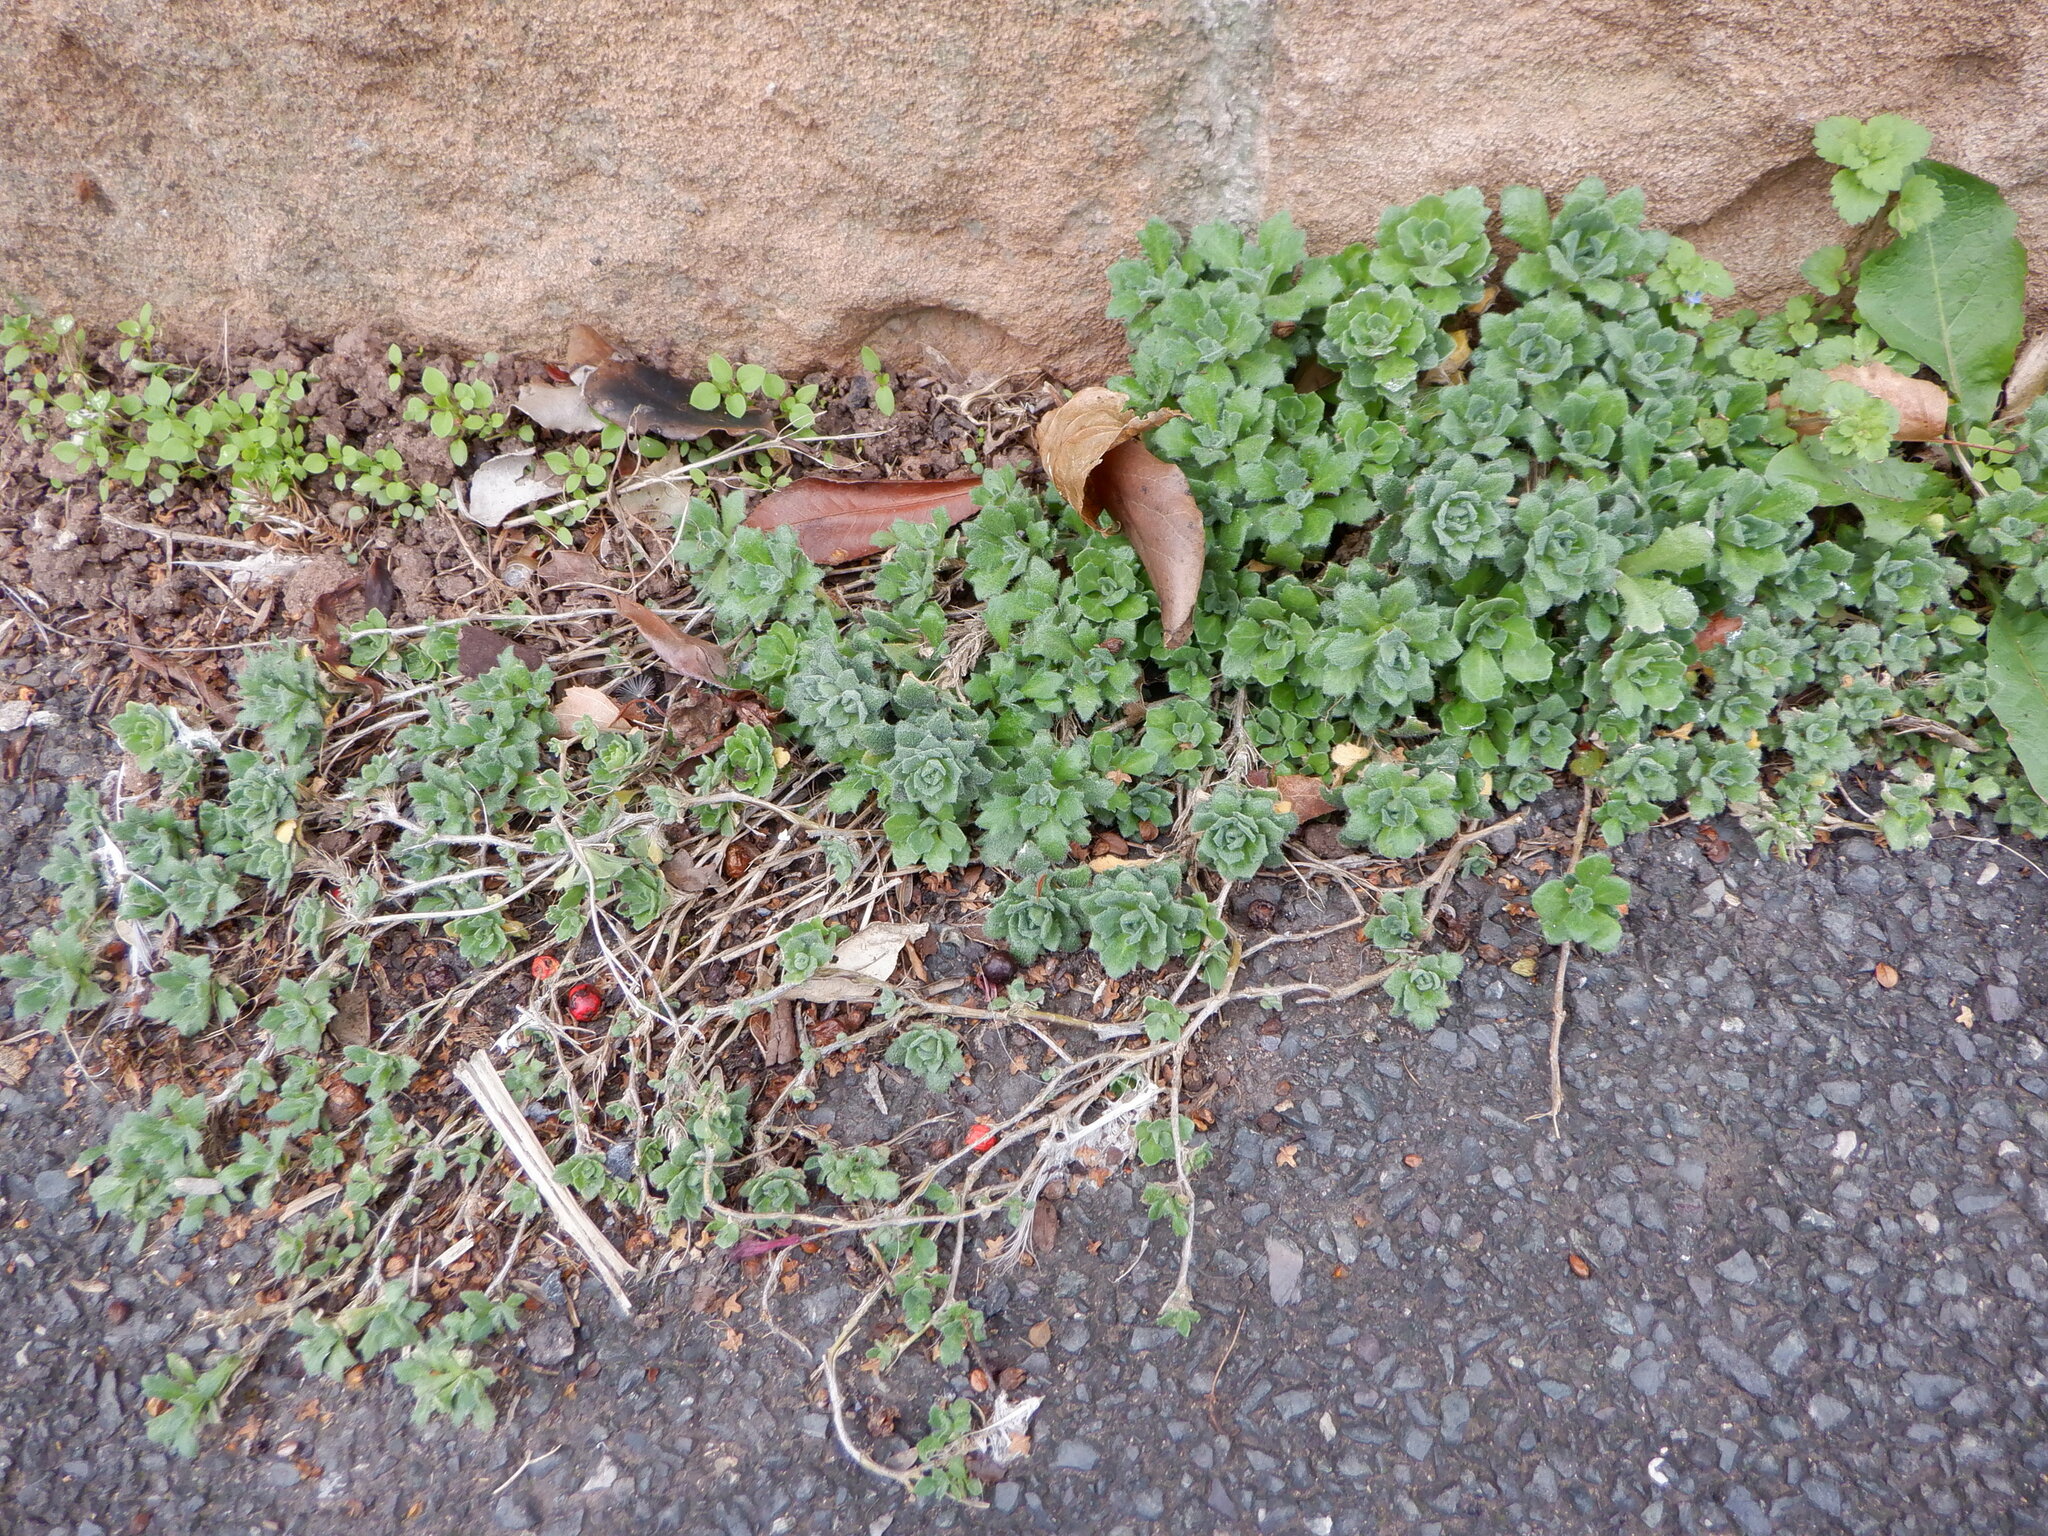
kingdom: Plantae
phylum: Tracheophyta
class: Magnoliopsida
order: Brassicales
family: Brassicaceae
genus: Aubrieta
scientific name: Aubrieta deltoidea
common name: Aubretia
